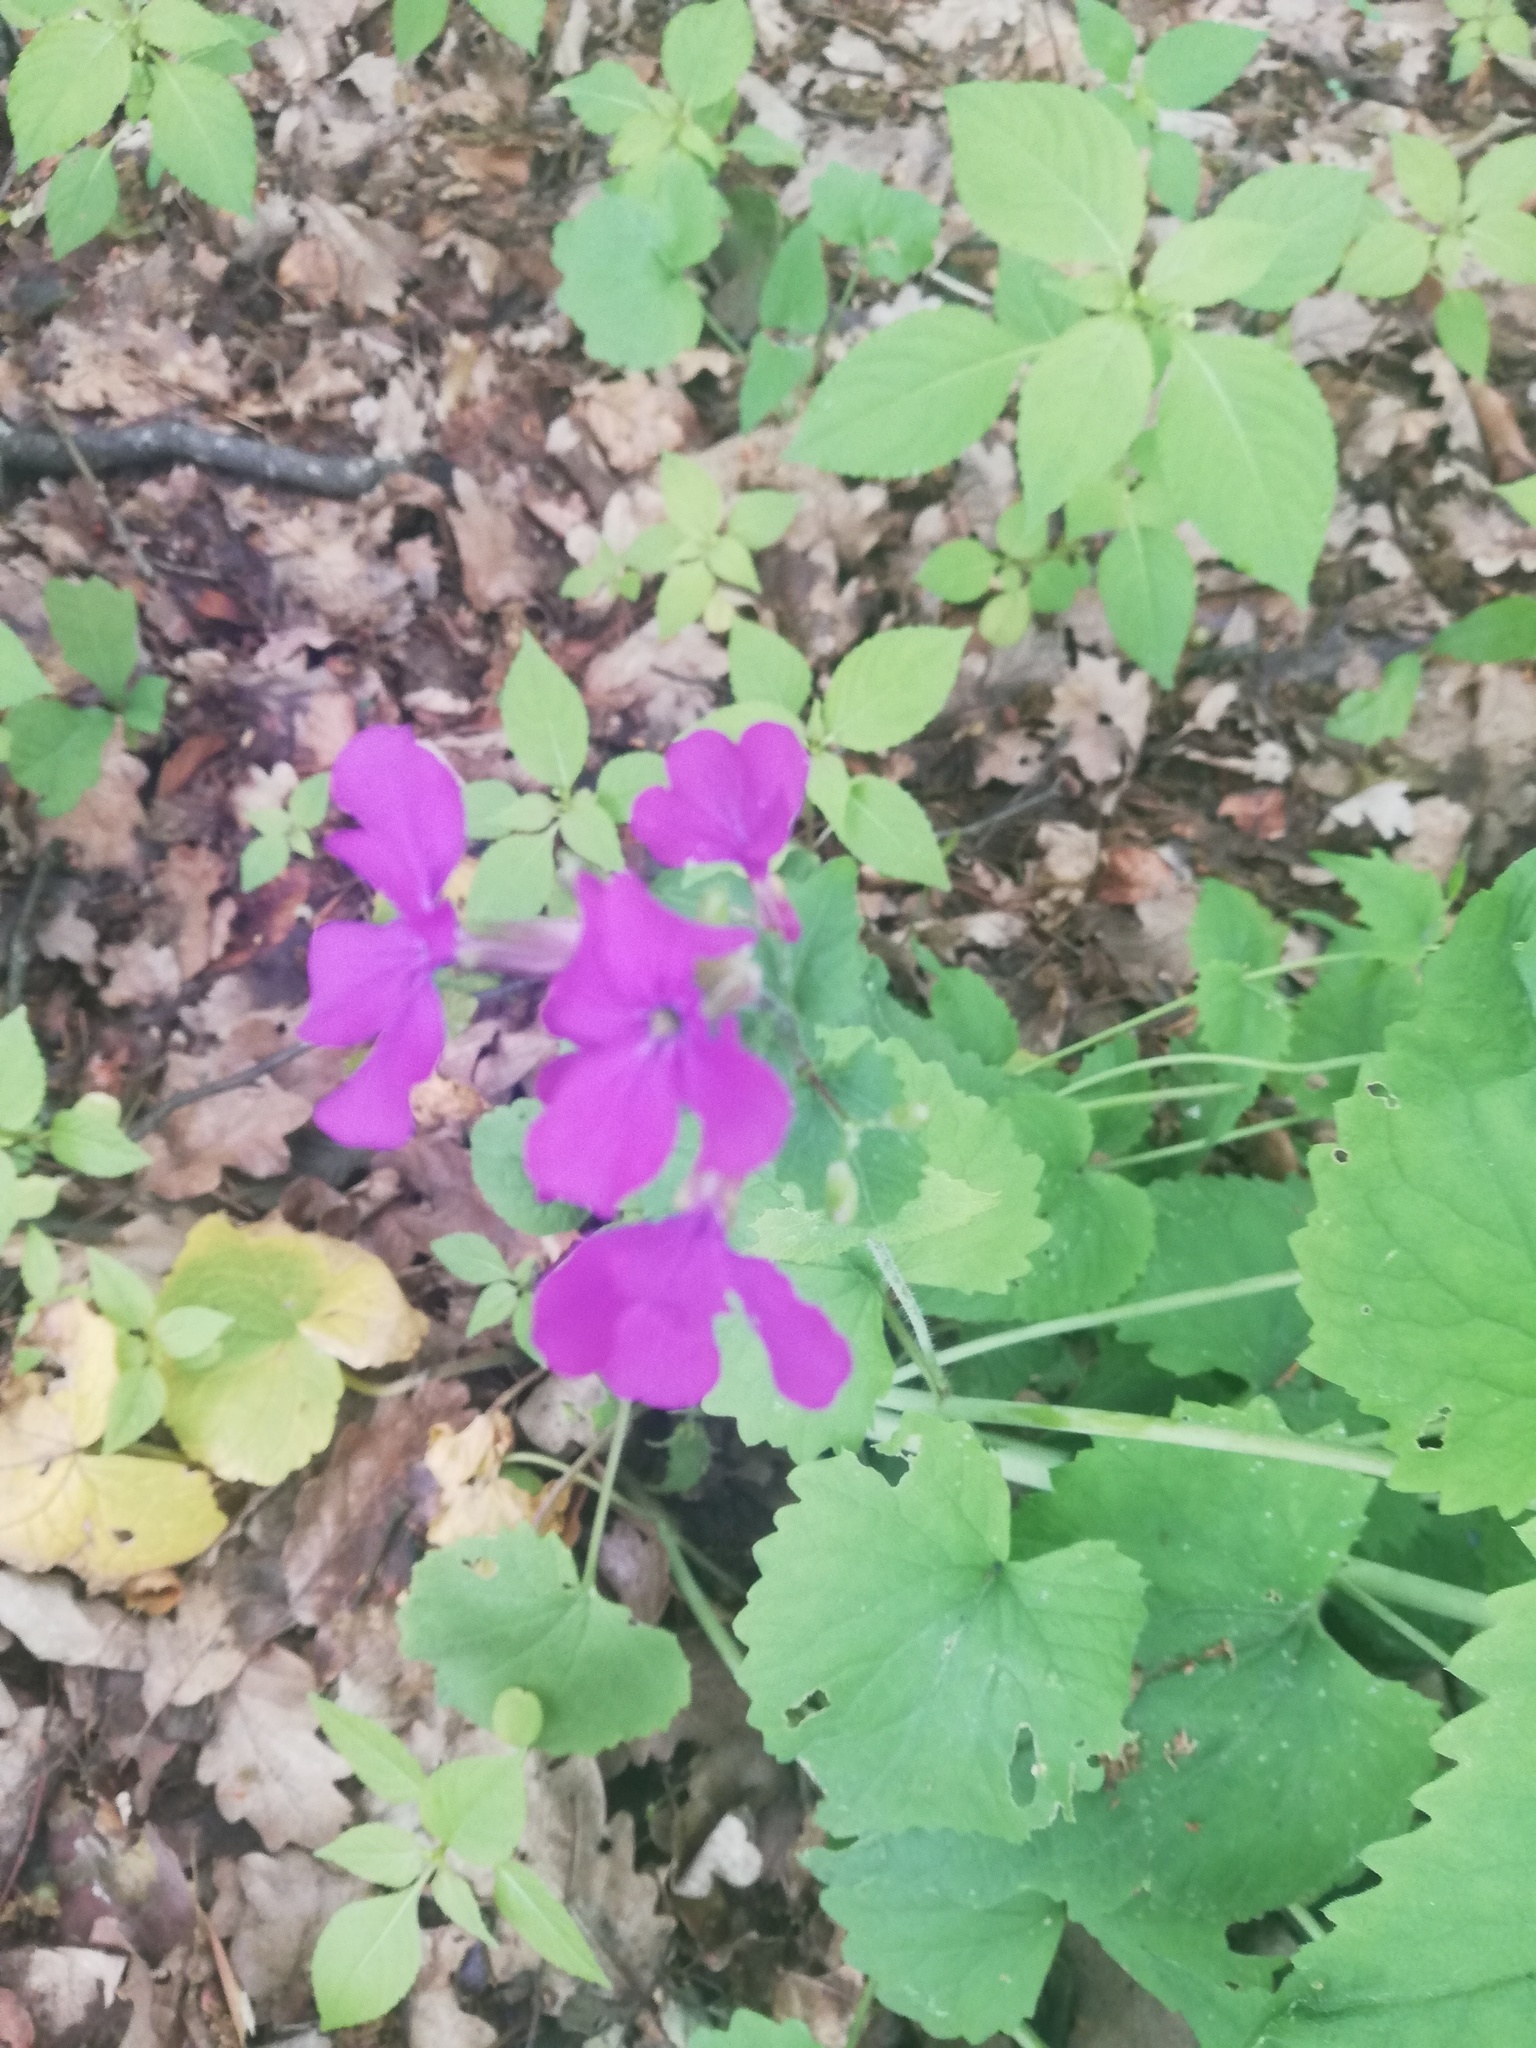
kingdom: Plantae
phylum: Tracheophyta
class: Magnoliopsida
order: Brassicales
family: Brassicaceae
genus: Lunaria
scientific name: Lunaria annua
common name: Honesty
